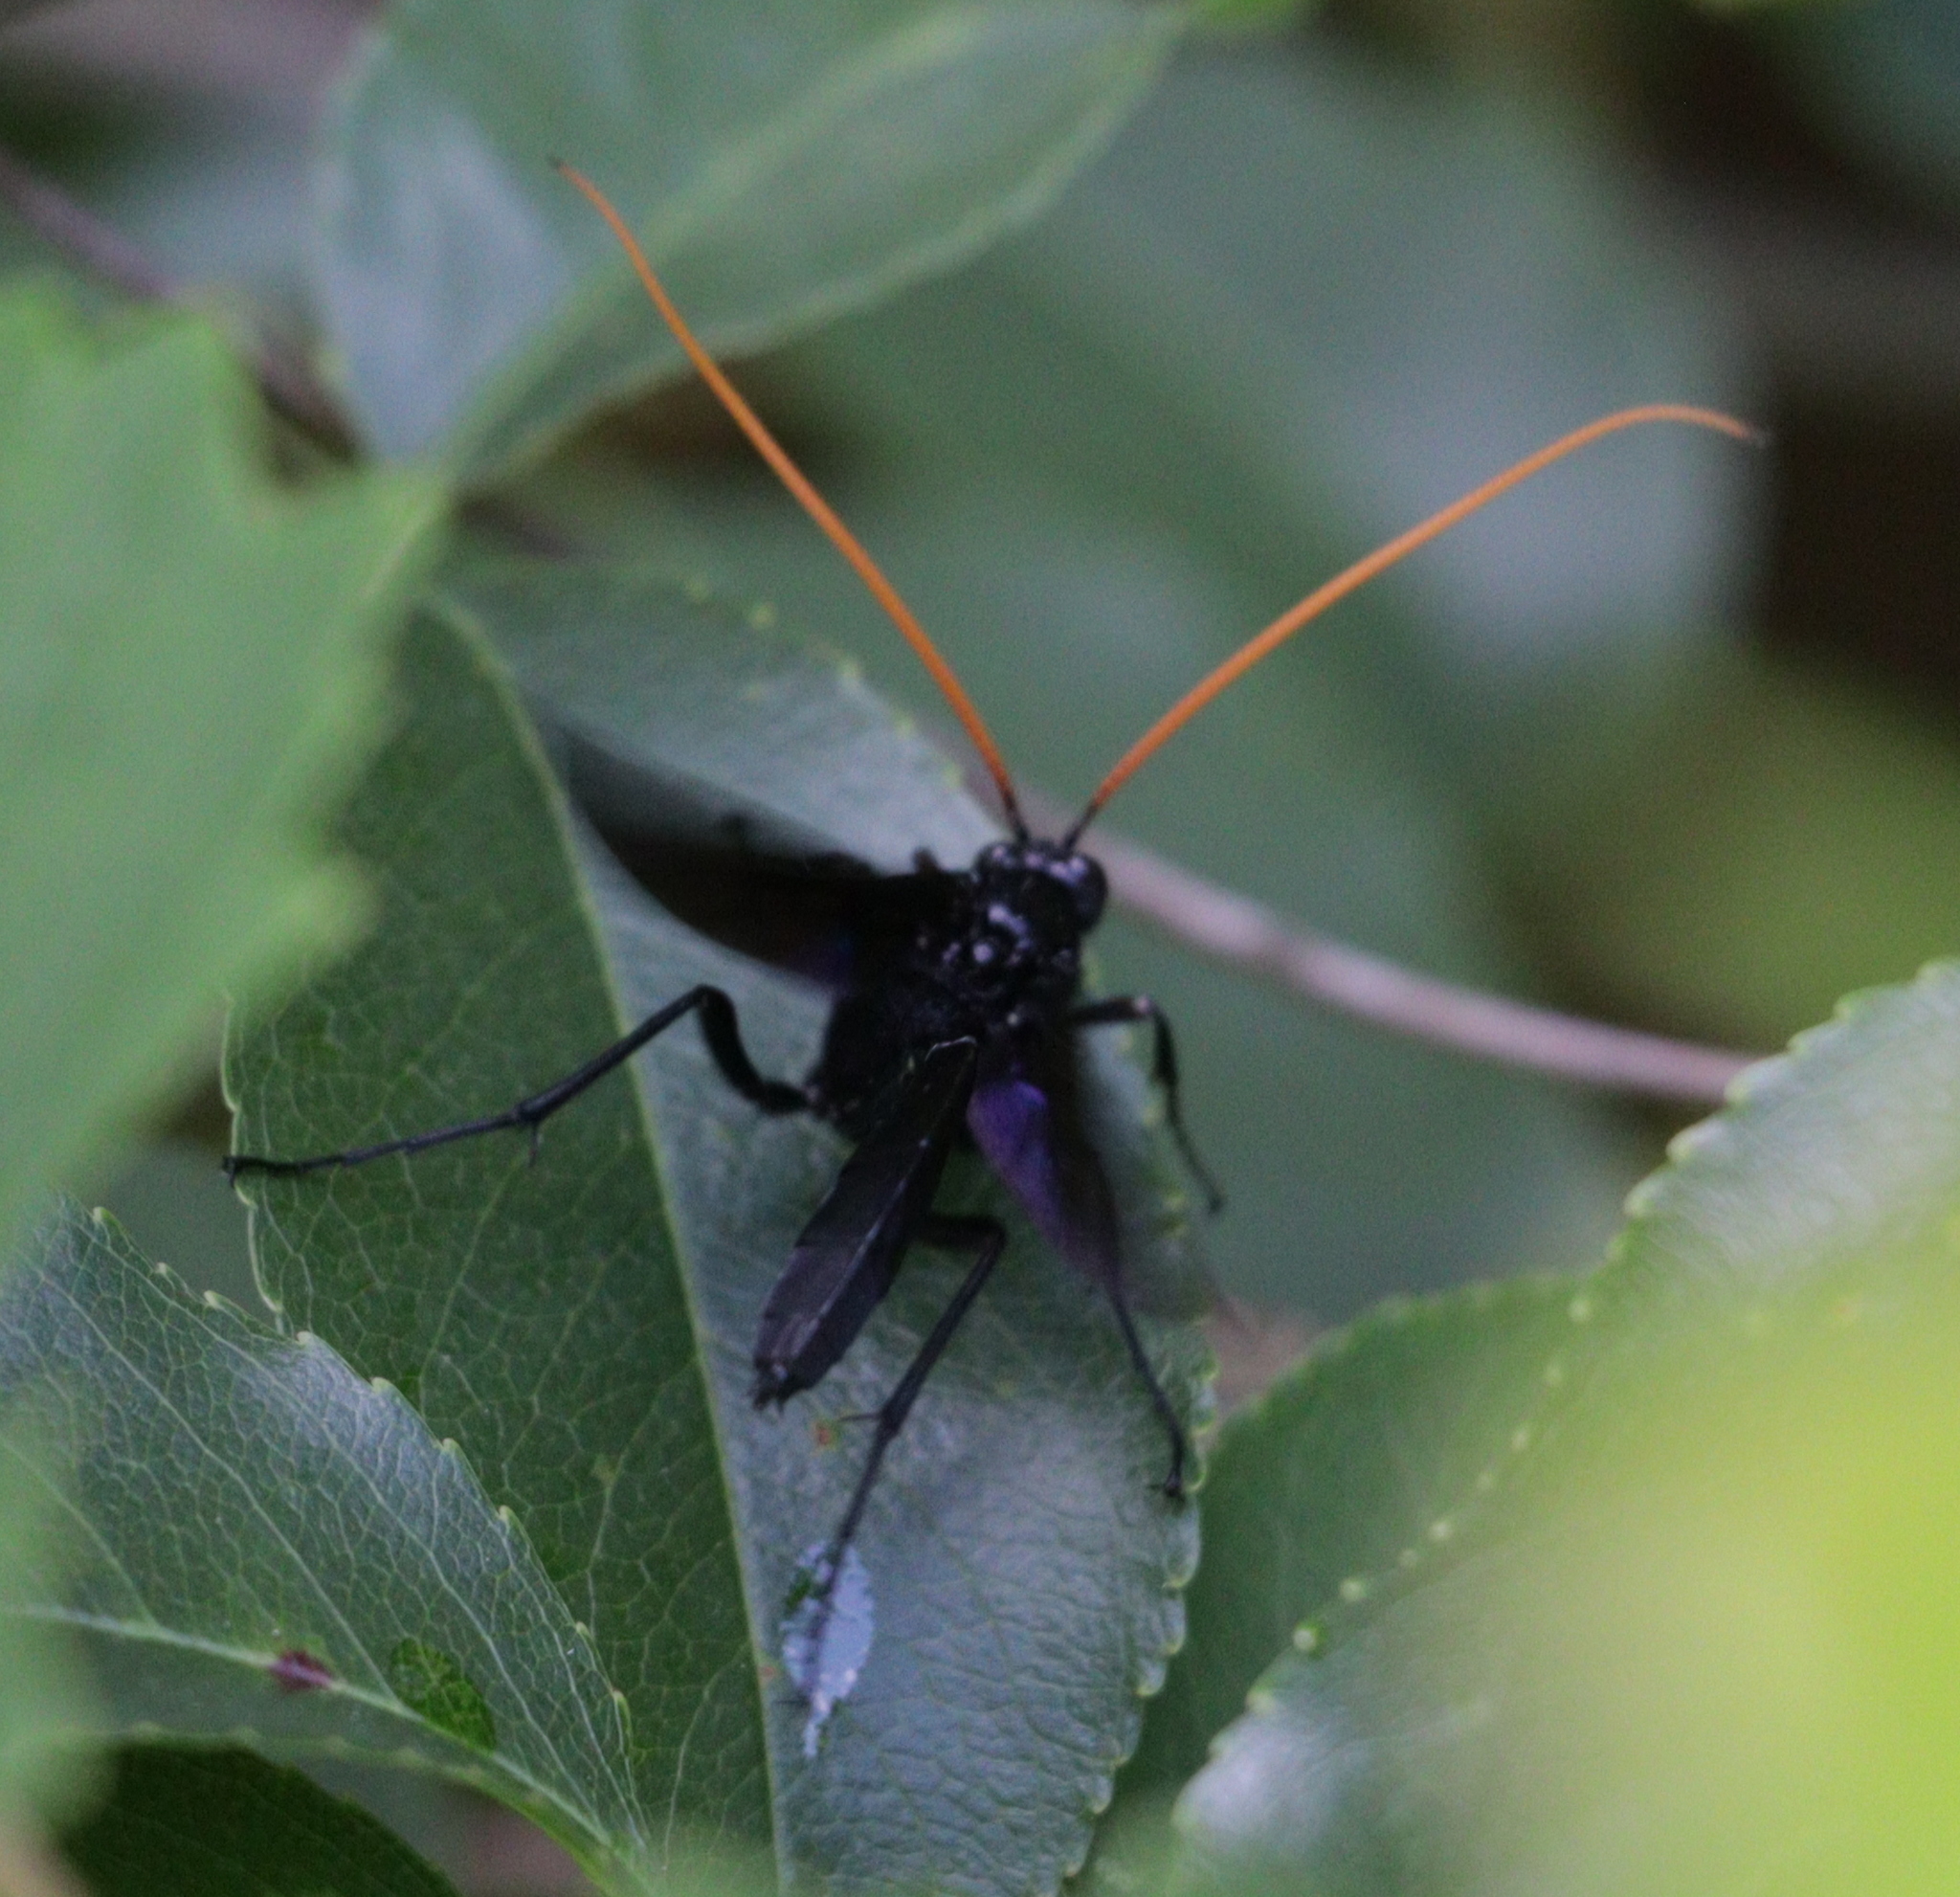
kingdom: Animalia
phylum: Arthropoda
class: Insecta
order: Hymenoptera
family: Ichneumonidae
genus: Thyreodon
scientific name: Thyreodon atricolor
